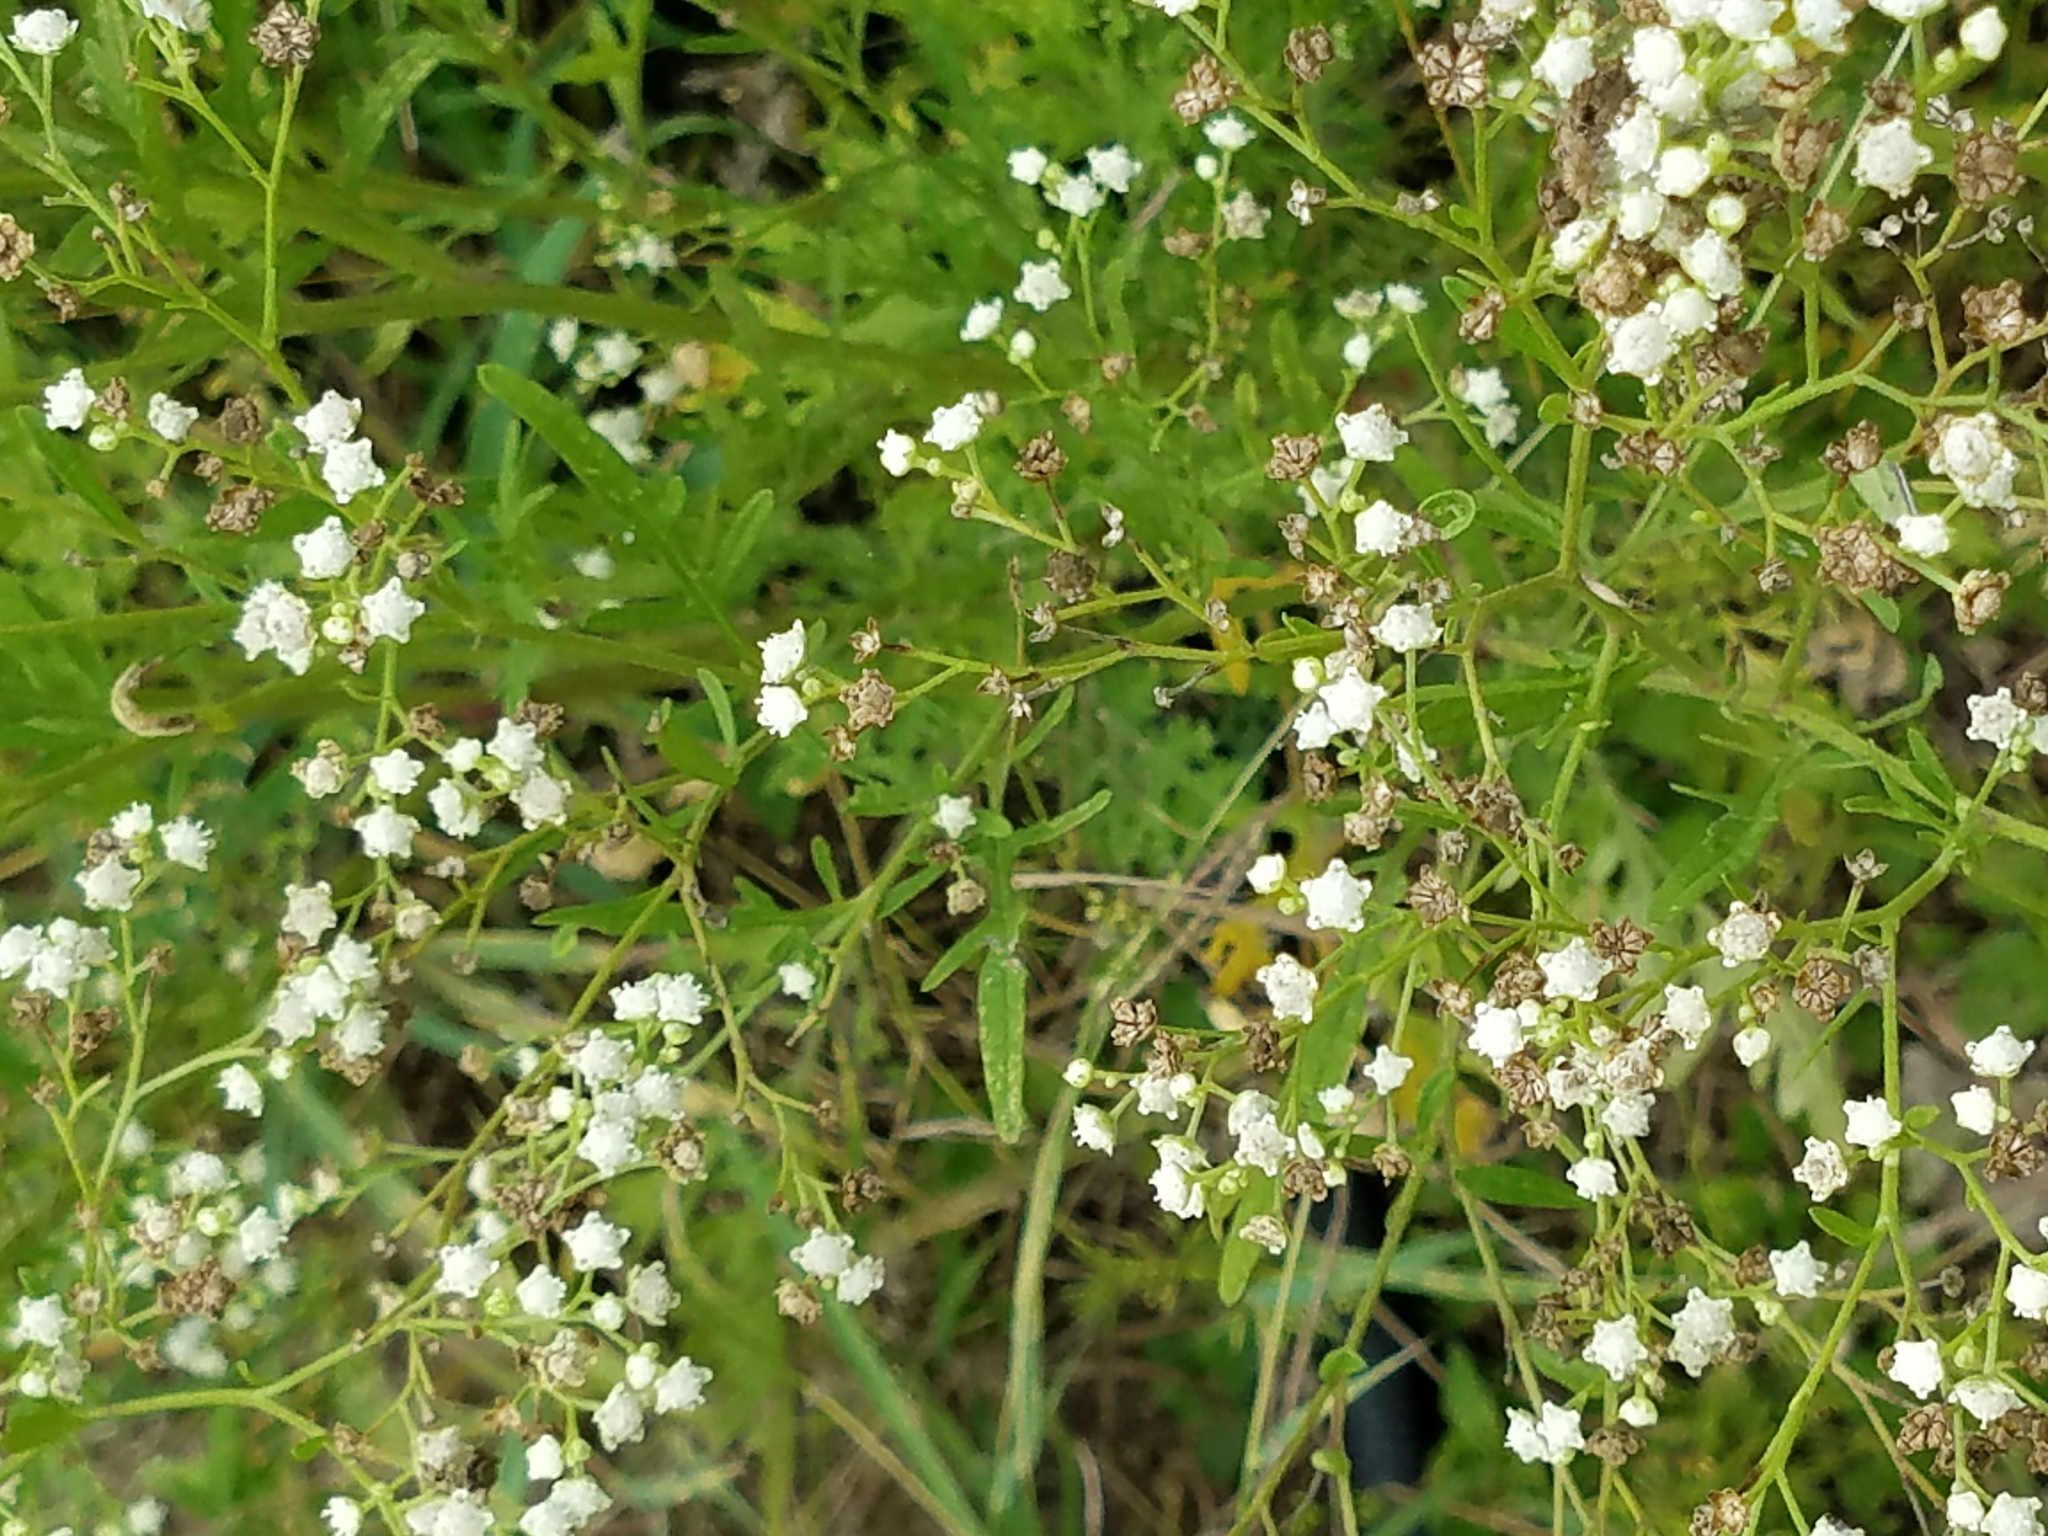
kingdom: Plantae
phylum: Tracheophyta
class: Magnoliopsida
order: Asterales
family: Asteraceae
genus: Parthenium
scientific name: Parthenium hysterophorus
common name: Santa maria feverfew
